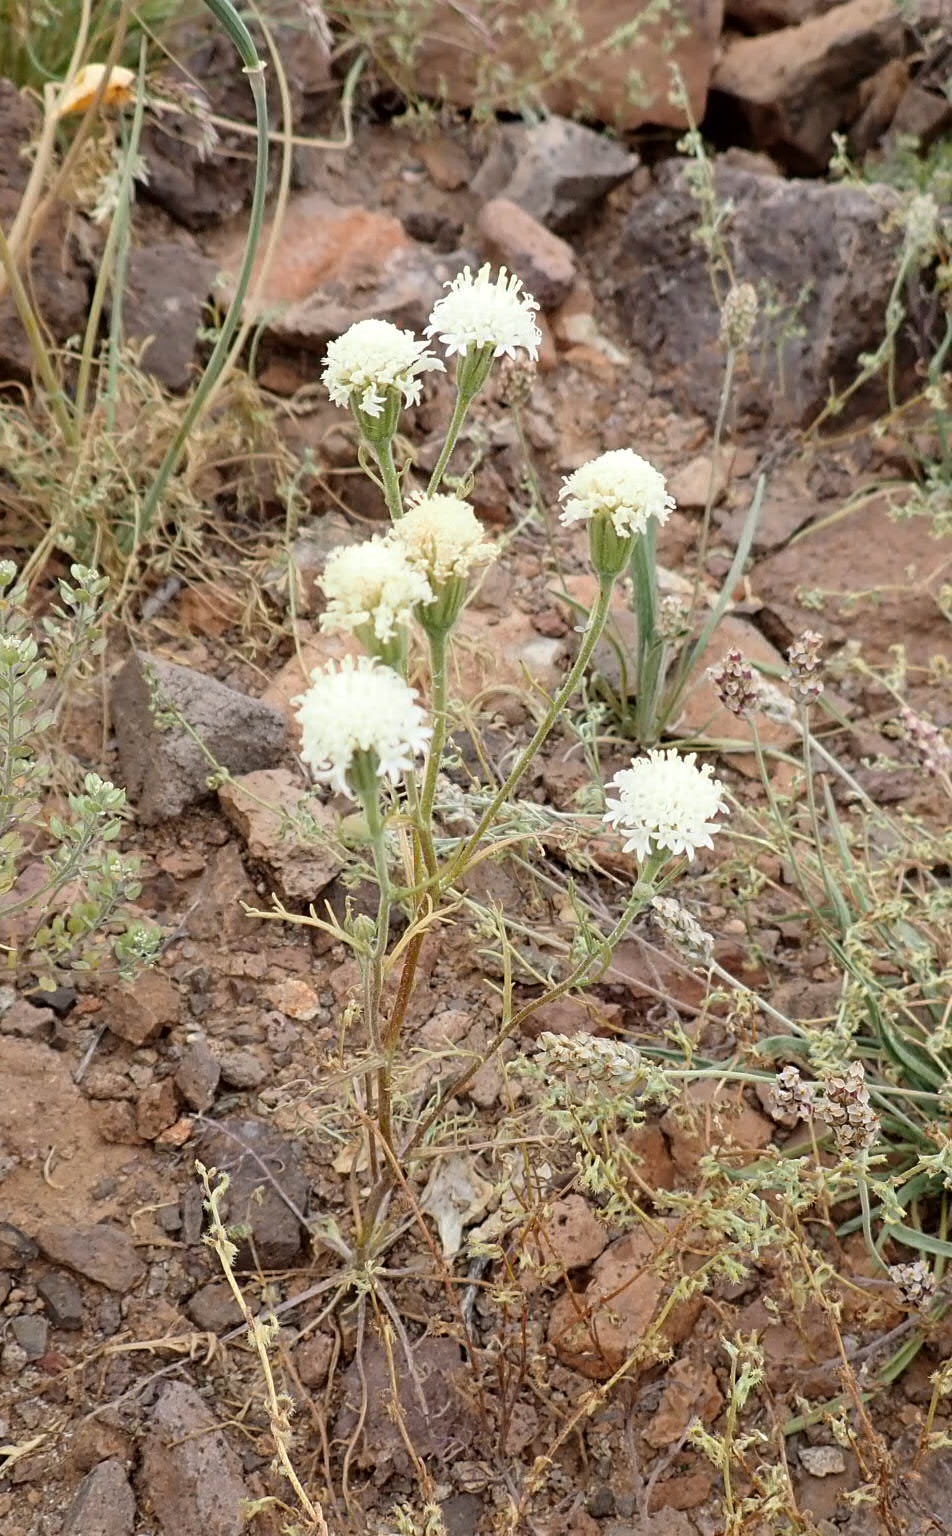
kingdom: Plantae
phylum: Tracheophyta
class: Magnoliopsida
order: Asterales
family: Asteraceae
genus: Chaenactis
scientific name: Chaenactis stevioides
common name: Desert pincushion
